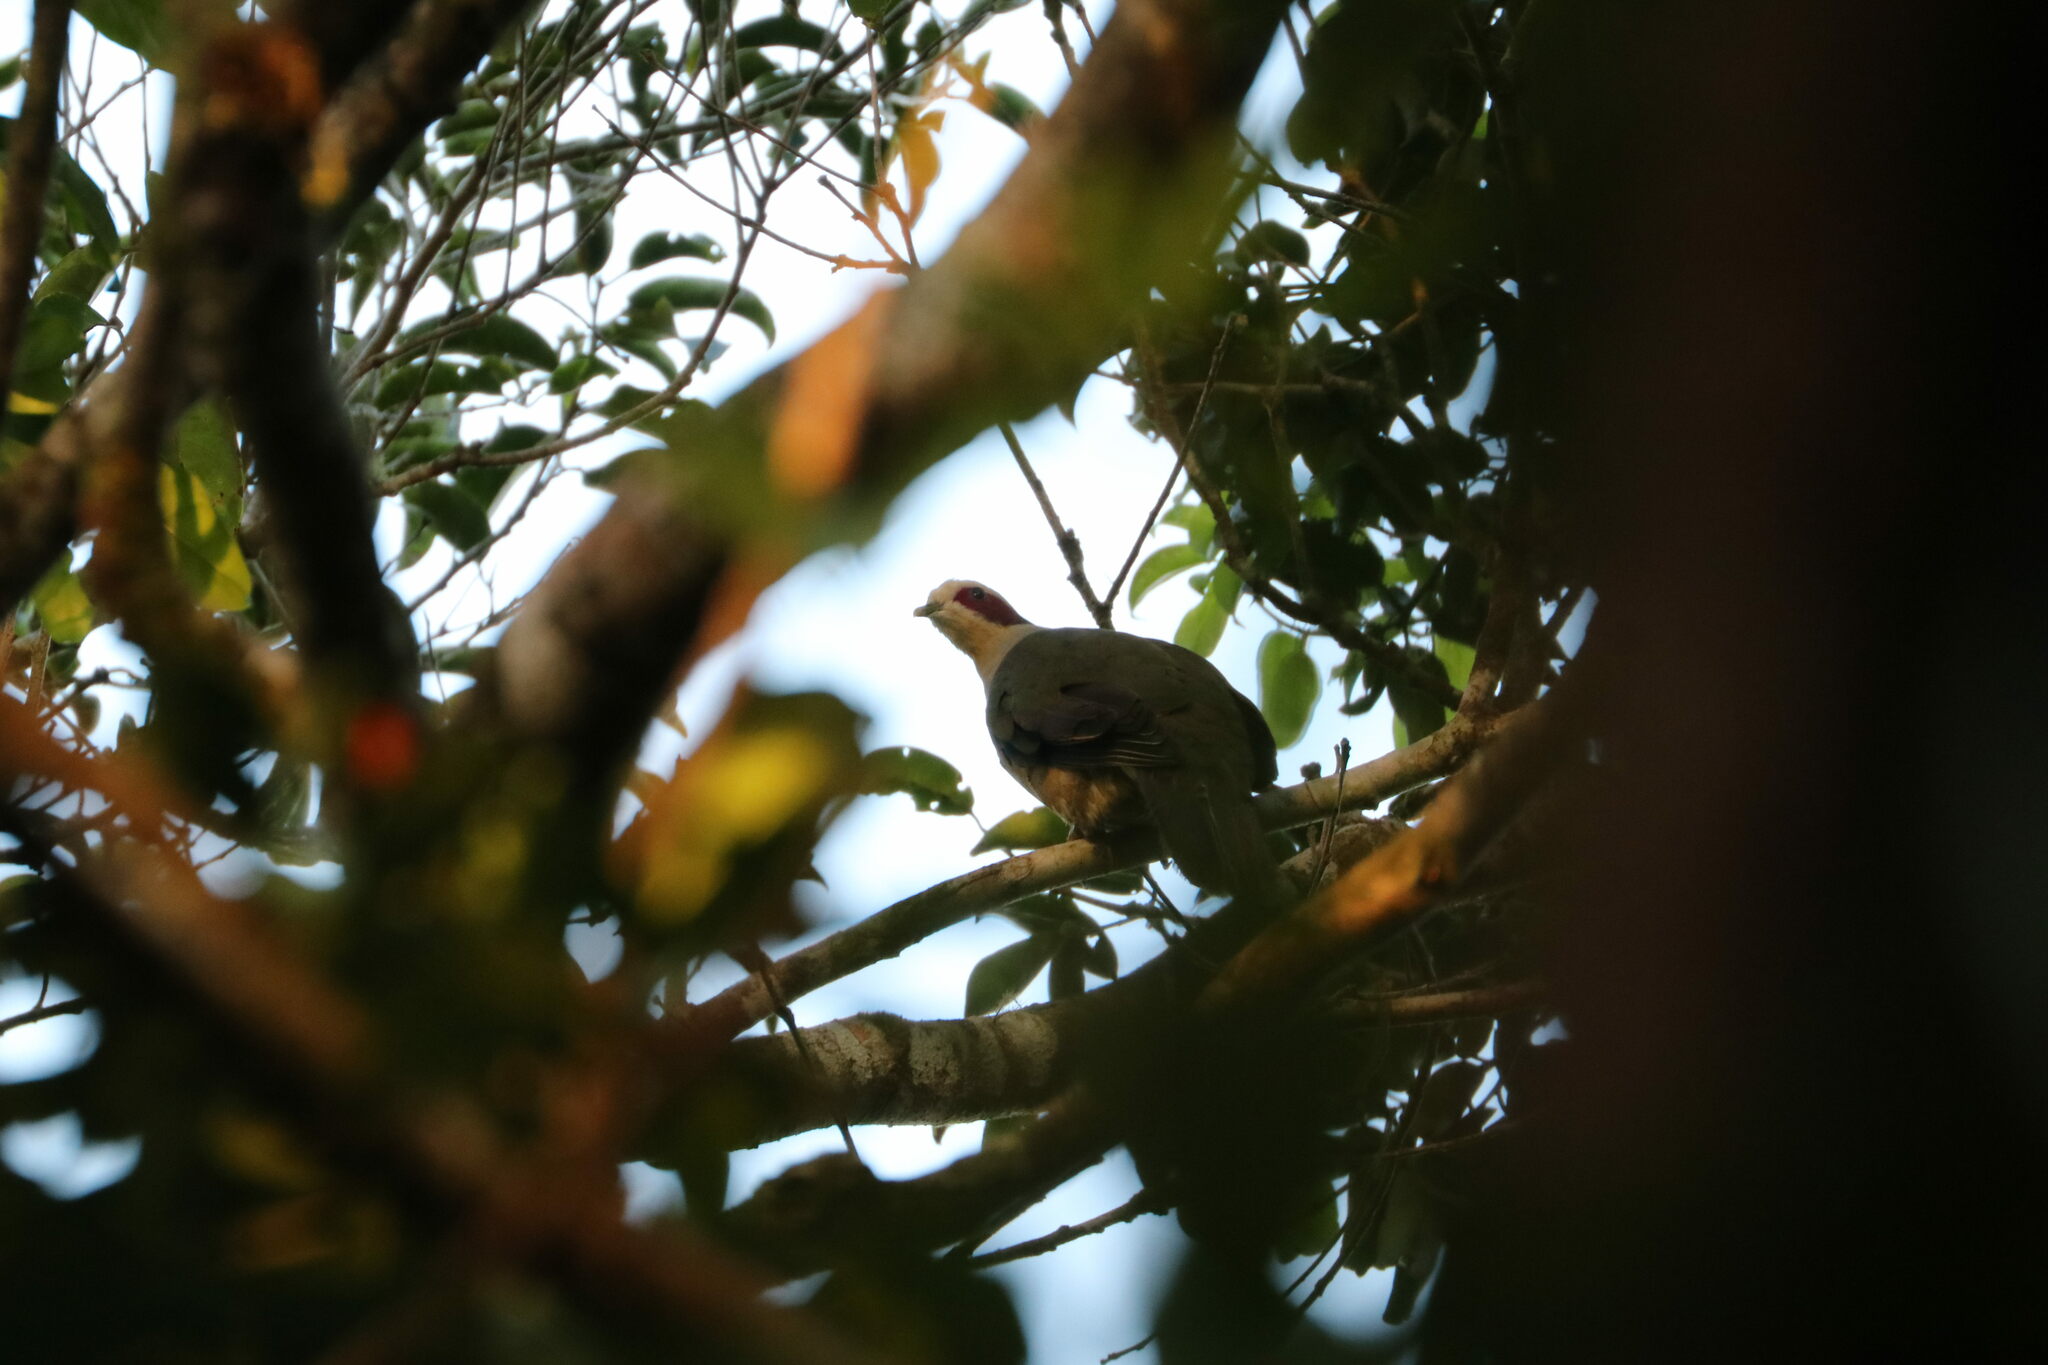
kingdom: Animalia
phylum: Chordata
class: Aves
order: Columbiformes
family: Columbidae
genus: Ptilinopus
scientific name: Ptilinopus fischeri
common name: Red-eared fruit dove
